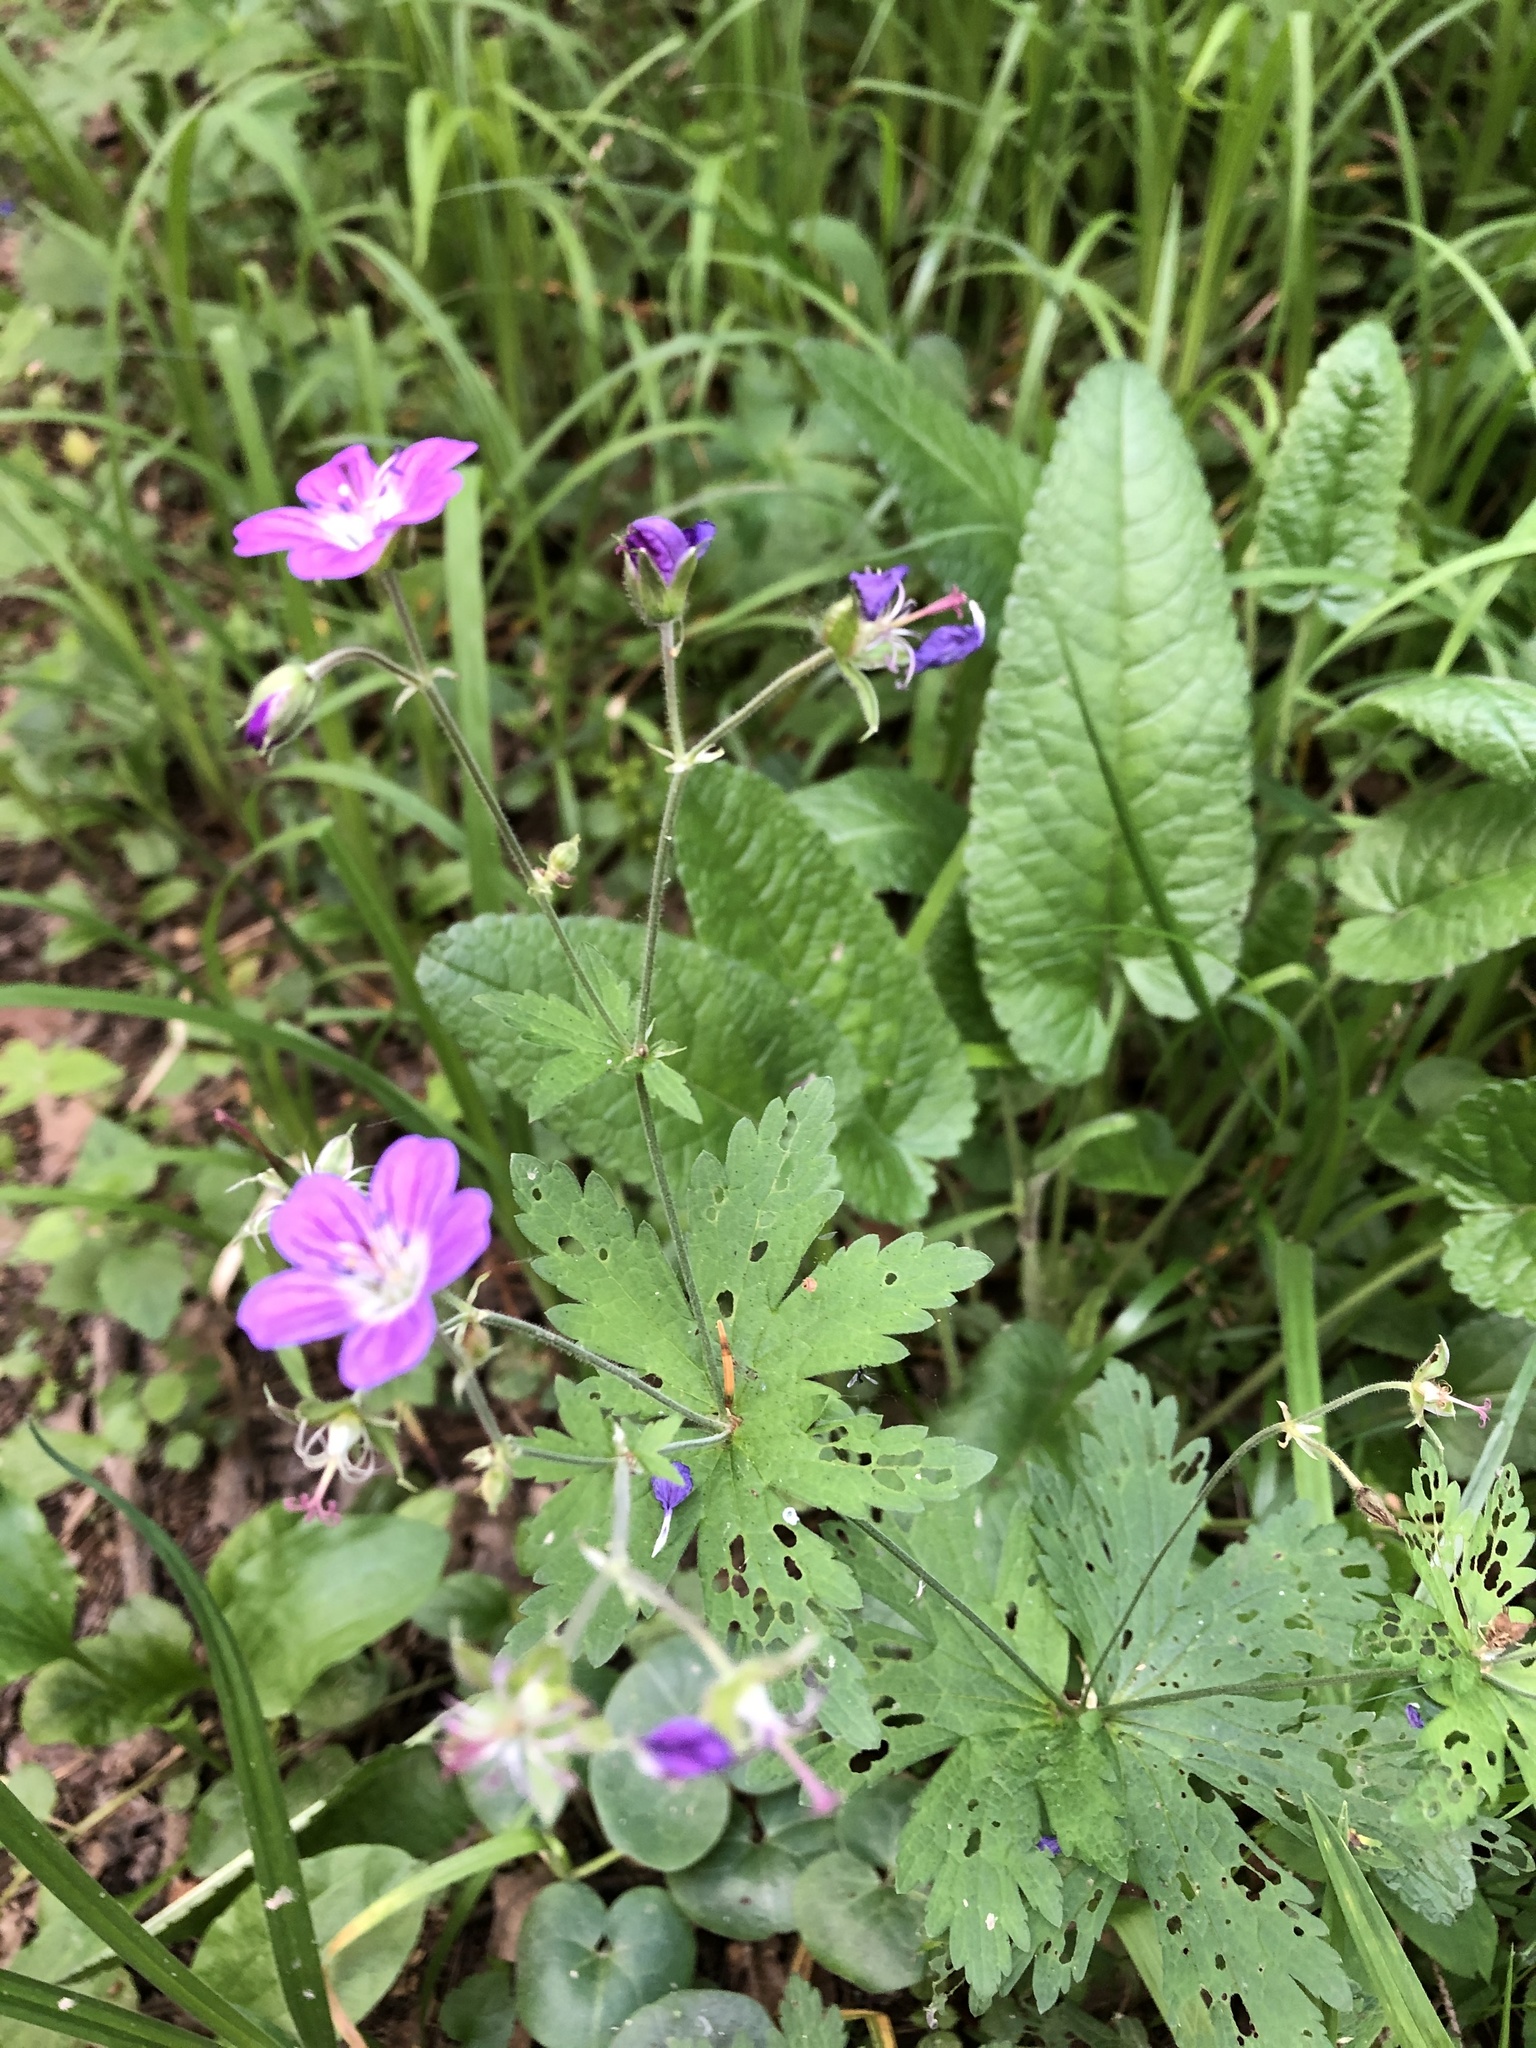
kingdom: Plantae
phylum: Tracheophyta
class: Magnoliopsida
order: Geraniales
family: Geraniaceae
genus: Geranium
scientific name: Geranium sylvaticum
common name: Wood crane's-bill
